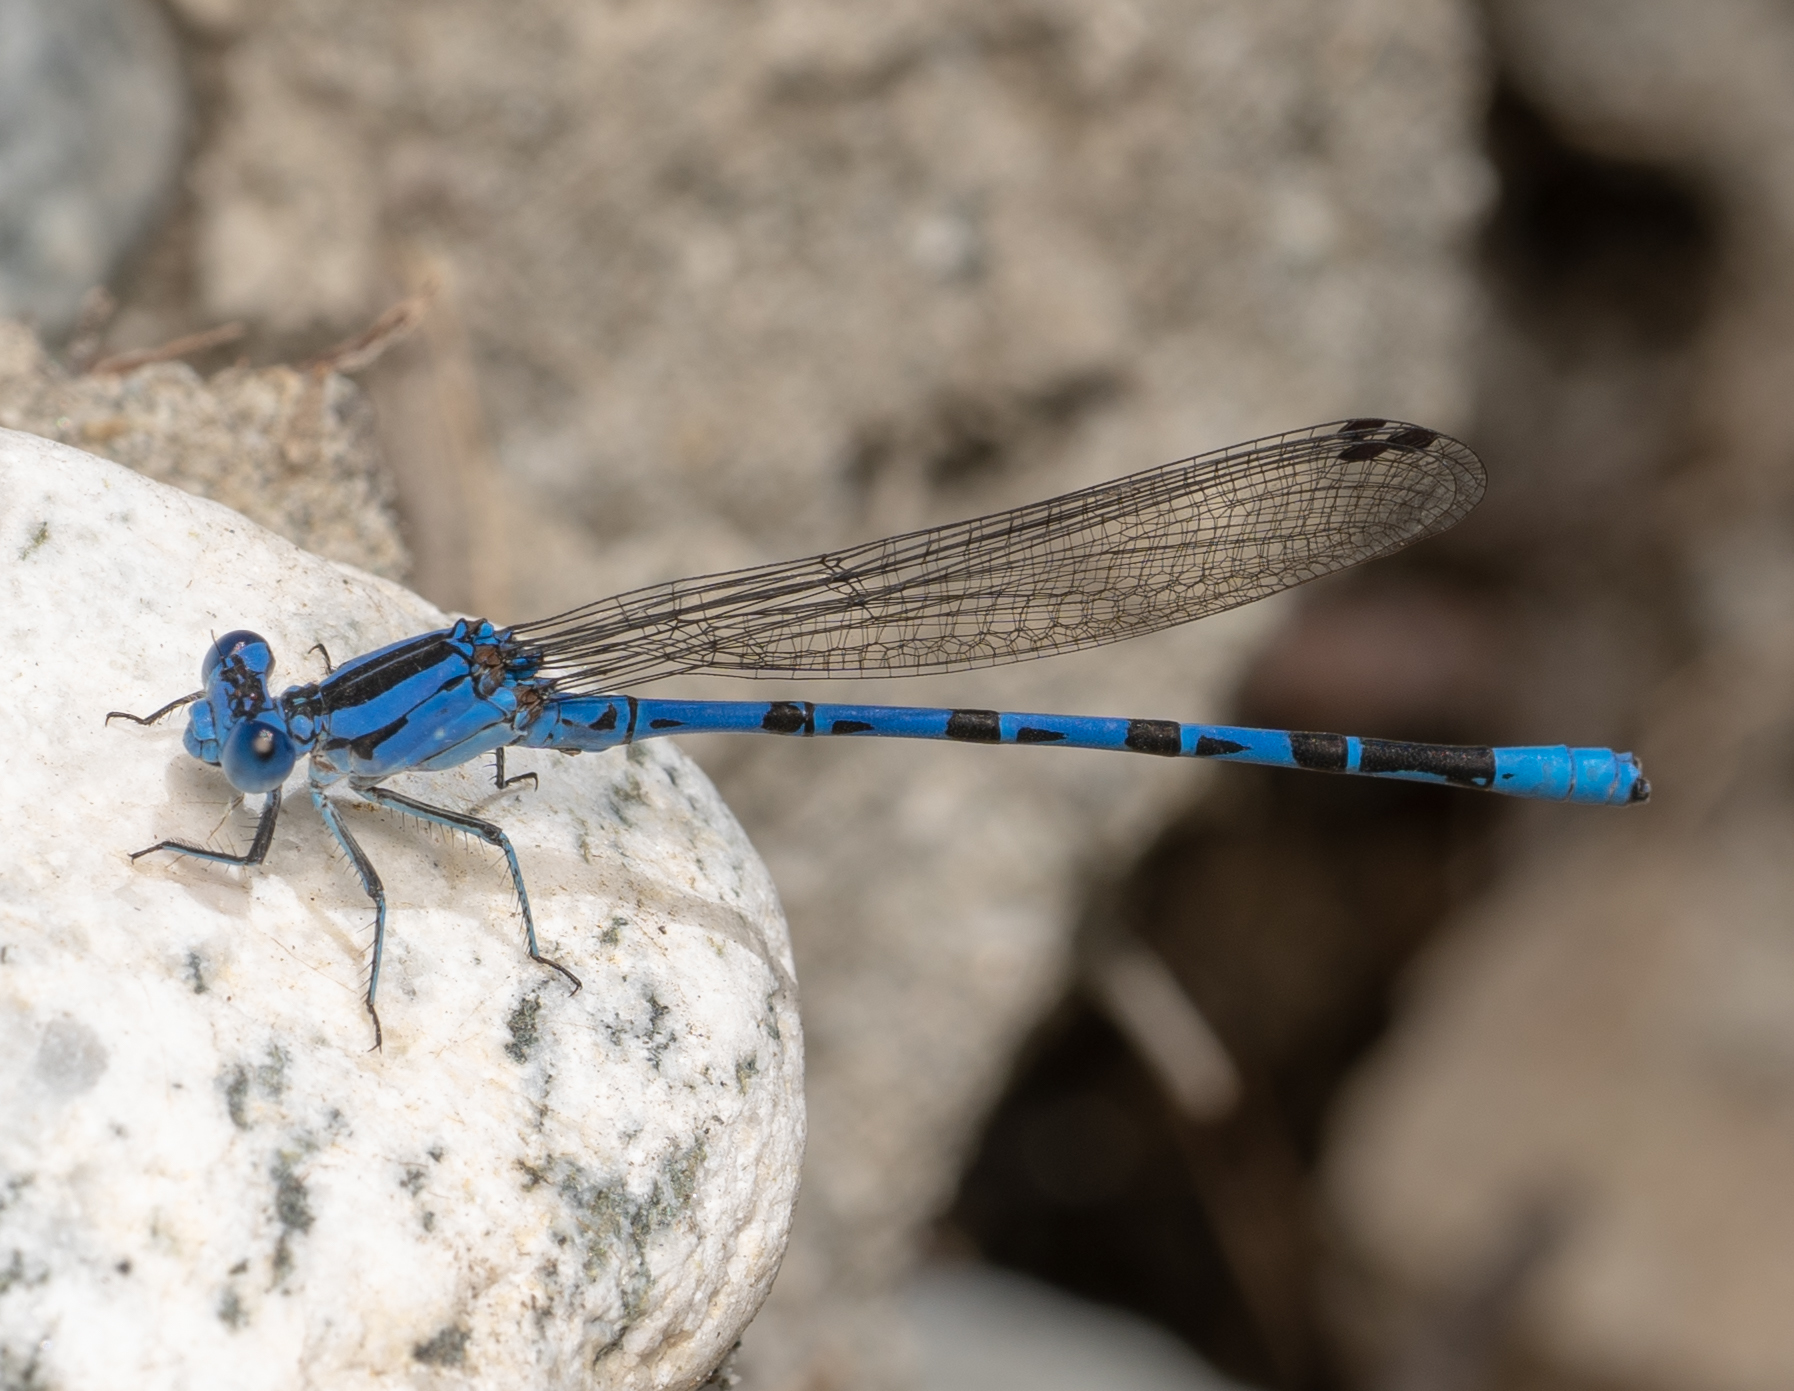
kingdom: Animalia
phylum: Arthropoda
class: Insecta
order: Odonata
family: Coenagrionidae
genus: Argia
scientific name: Argia vivida
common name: Vivid dancer
